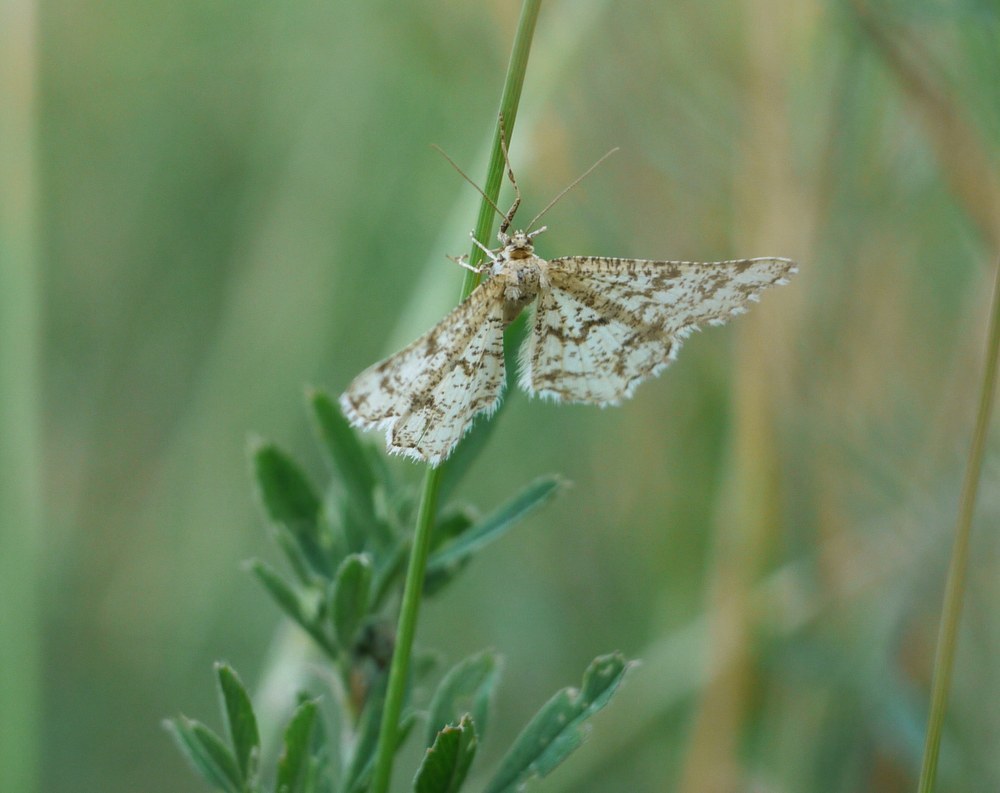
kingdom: Animalia
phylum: Arthropoda
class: Insecta
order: Lepidoptera
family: Geometridae
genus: Heliomata
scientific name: Heliomata glarearia
